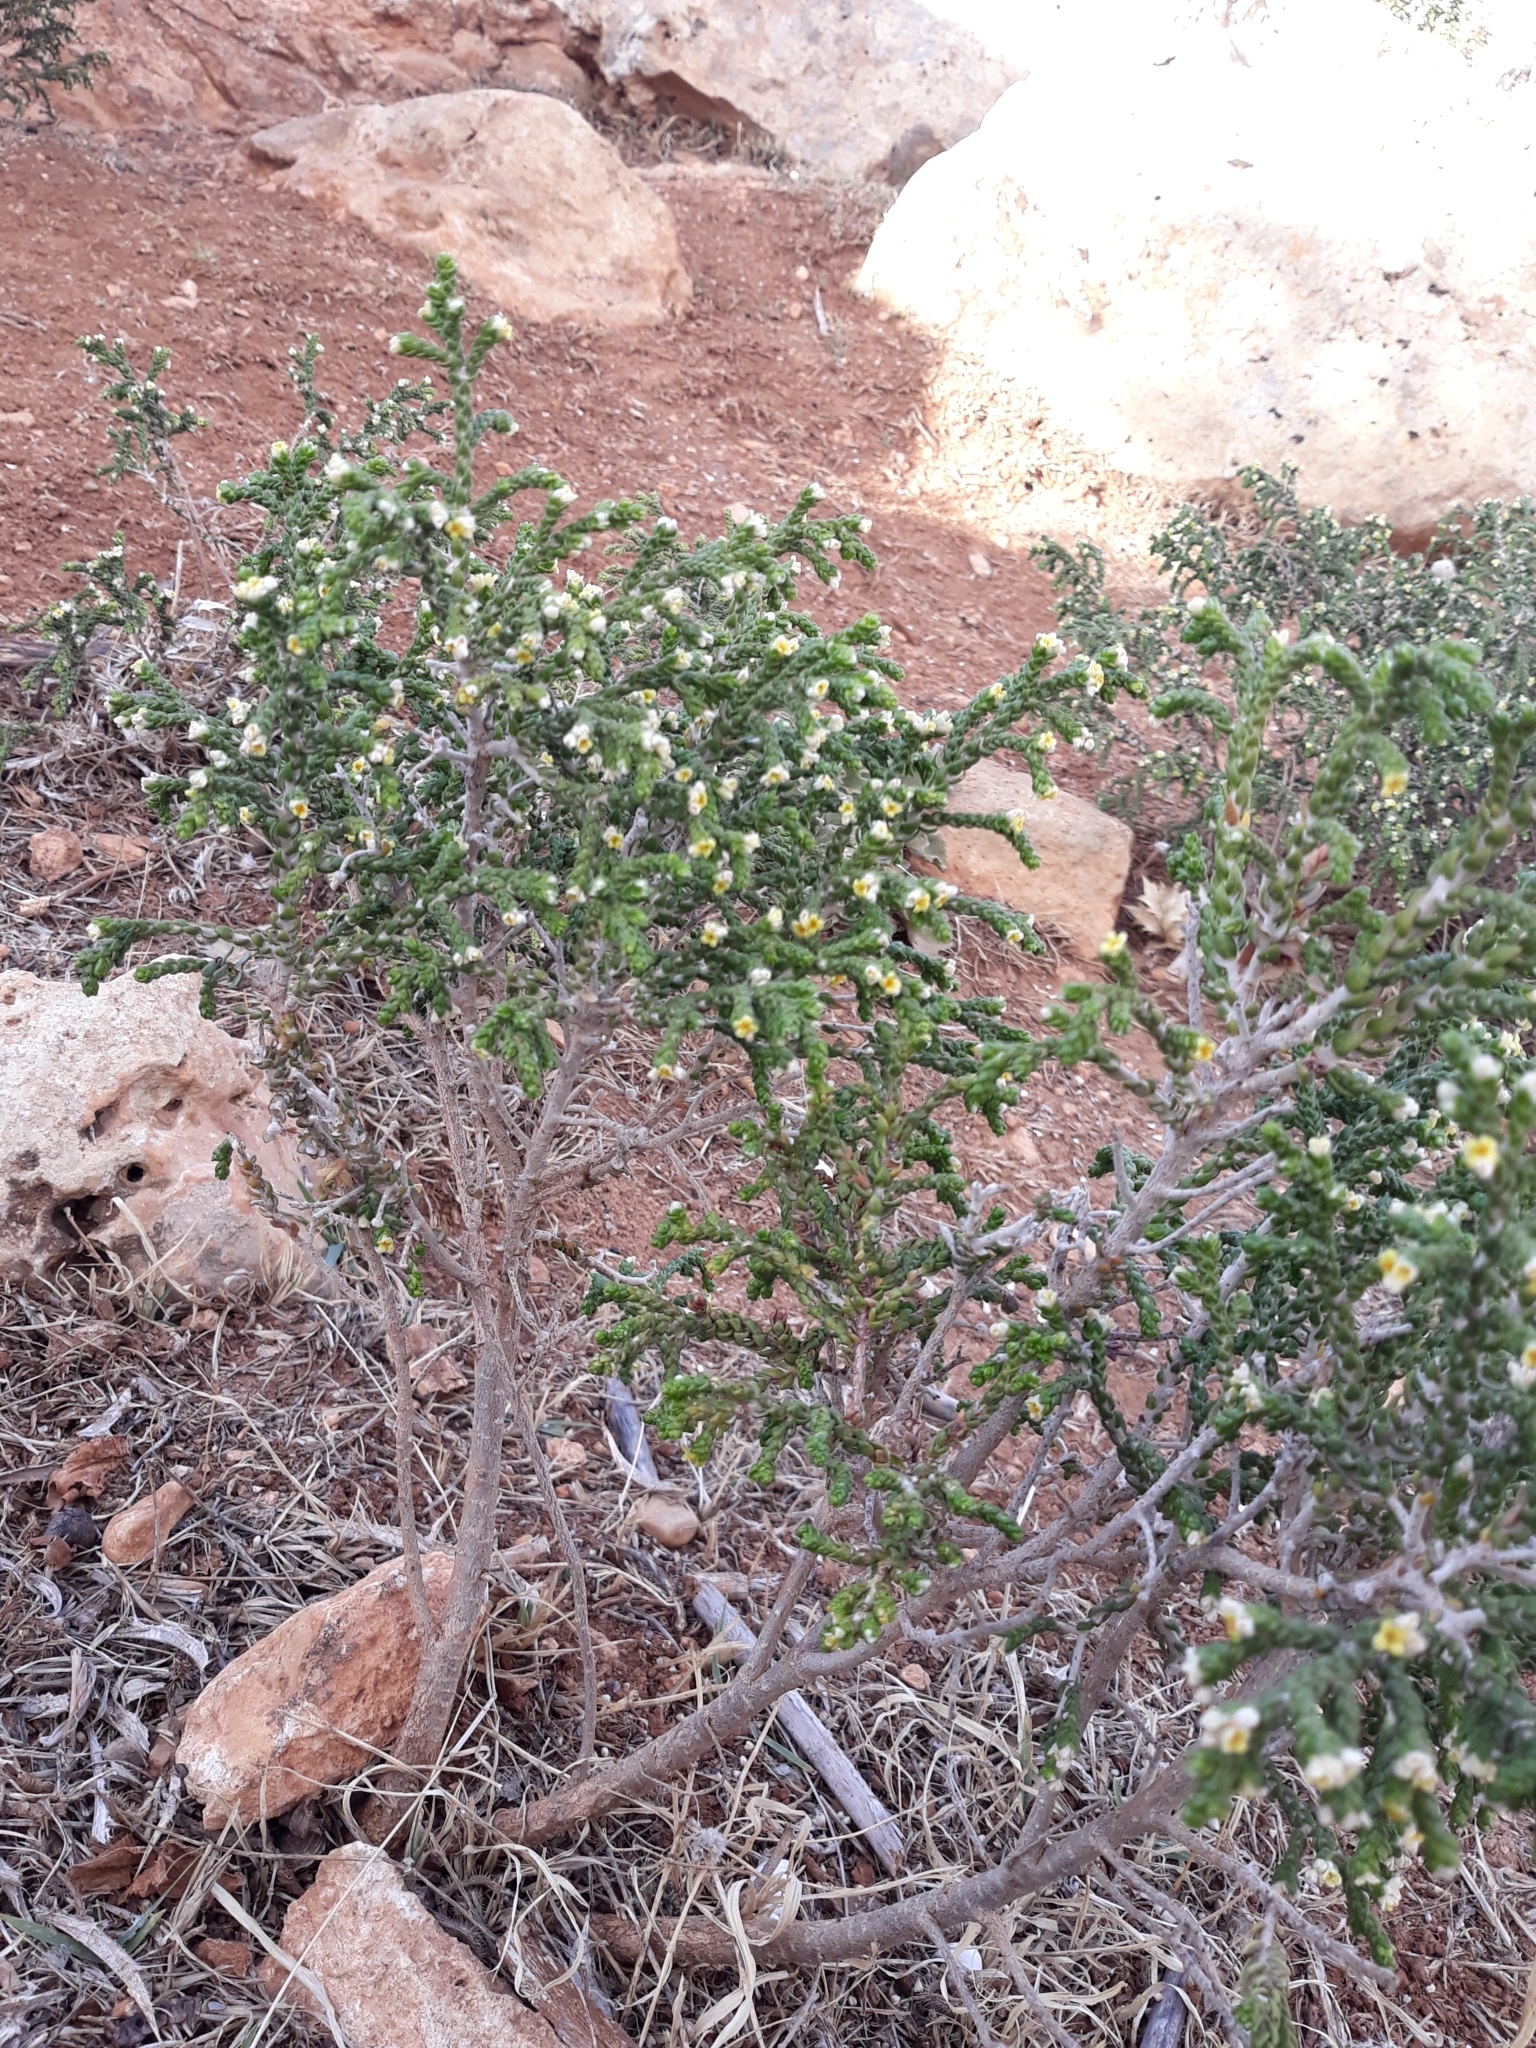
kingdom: Plantae
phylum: Tracheophyta
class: Magnoliopsida
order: Malvales
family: Thymelaeaceae
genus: Thymelaea
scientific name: Thymelaea hirsuta
